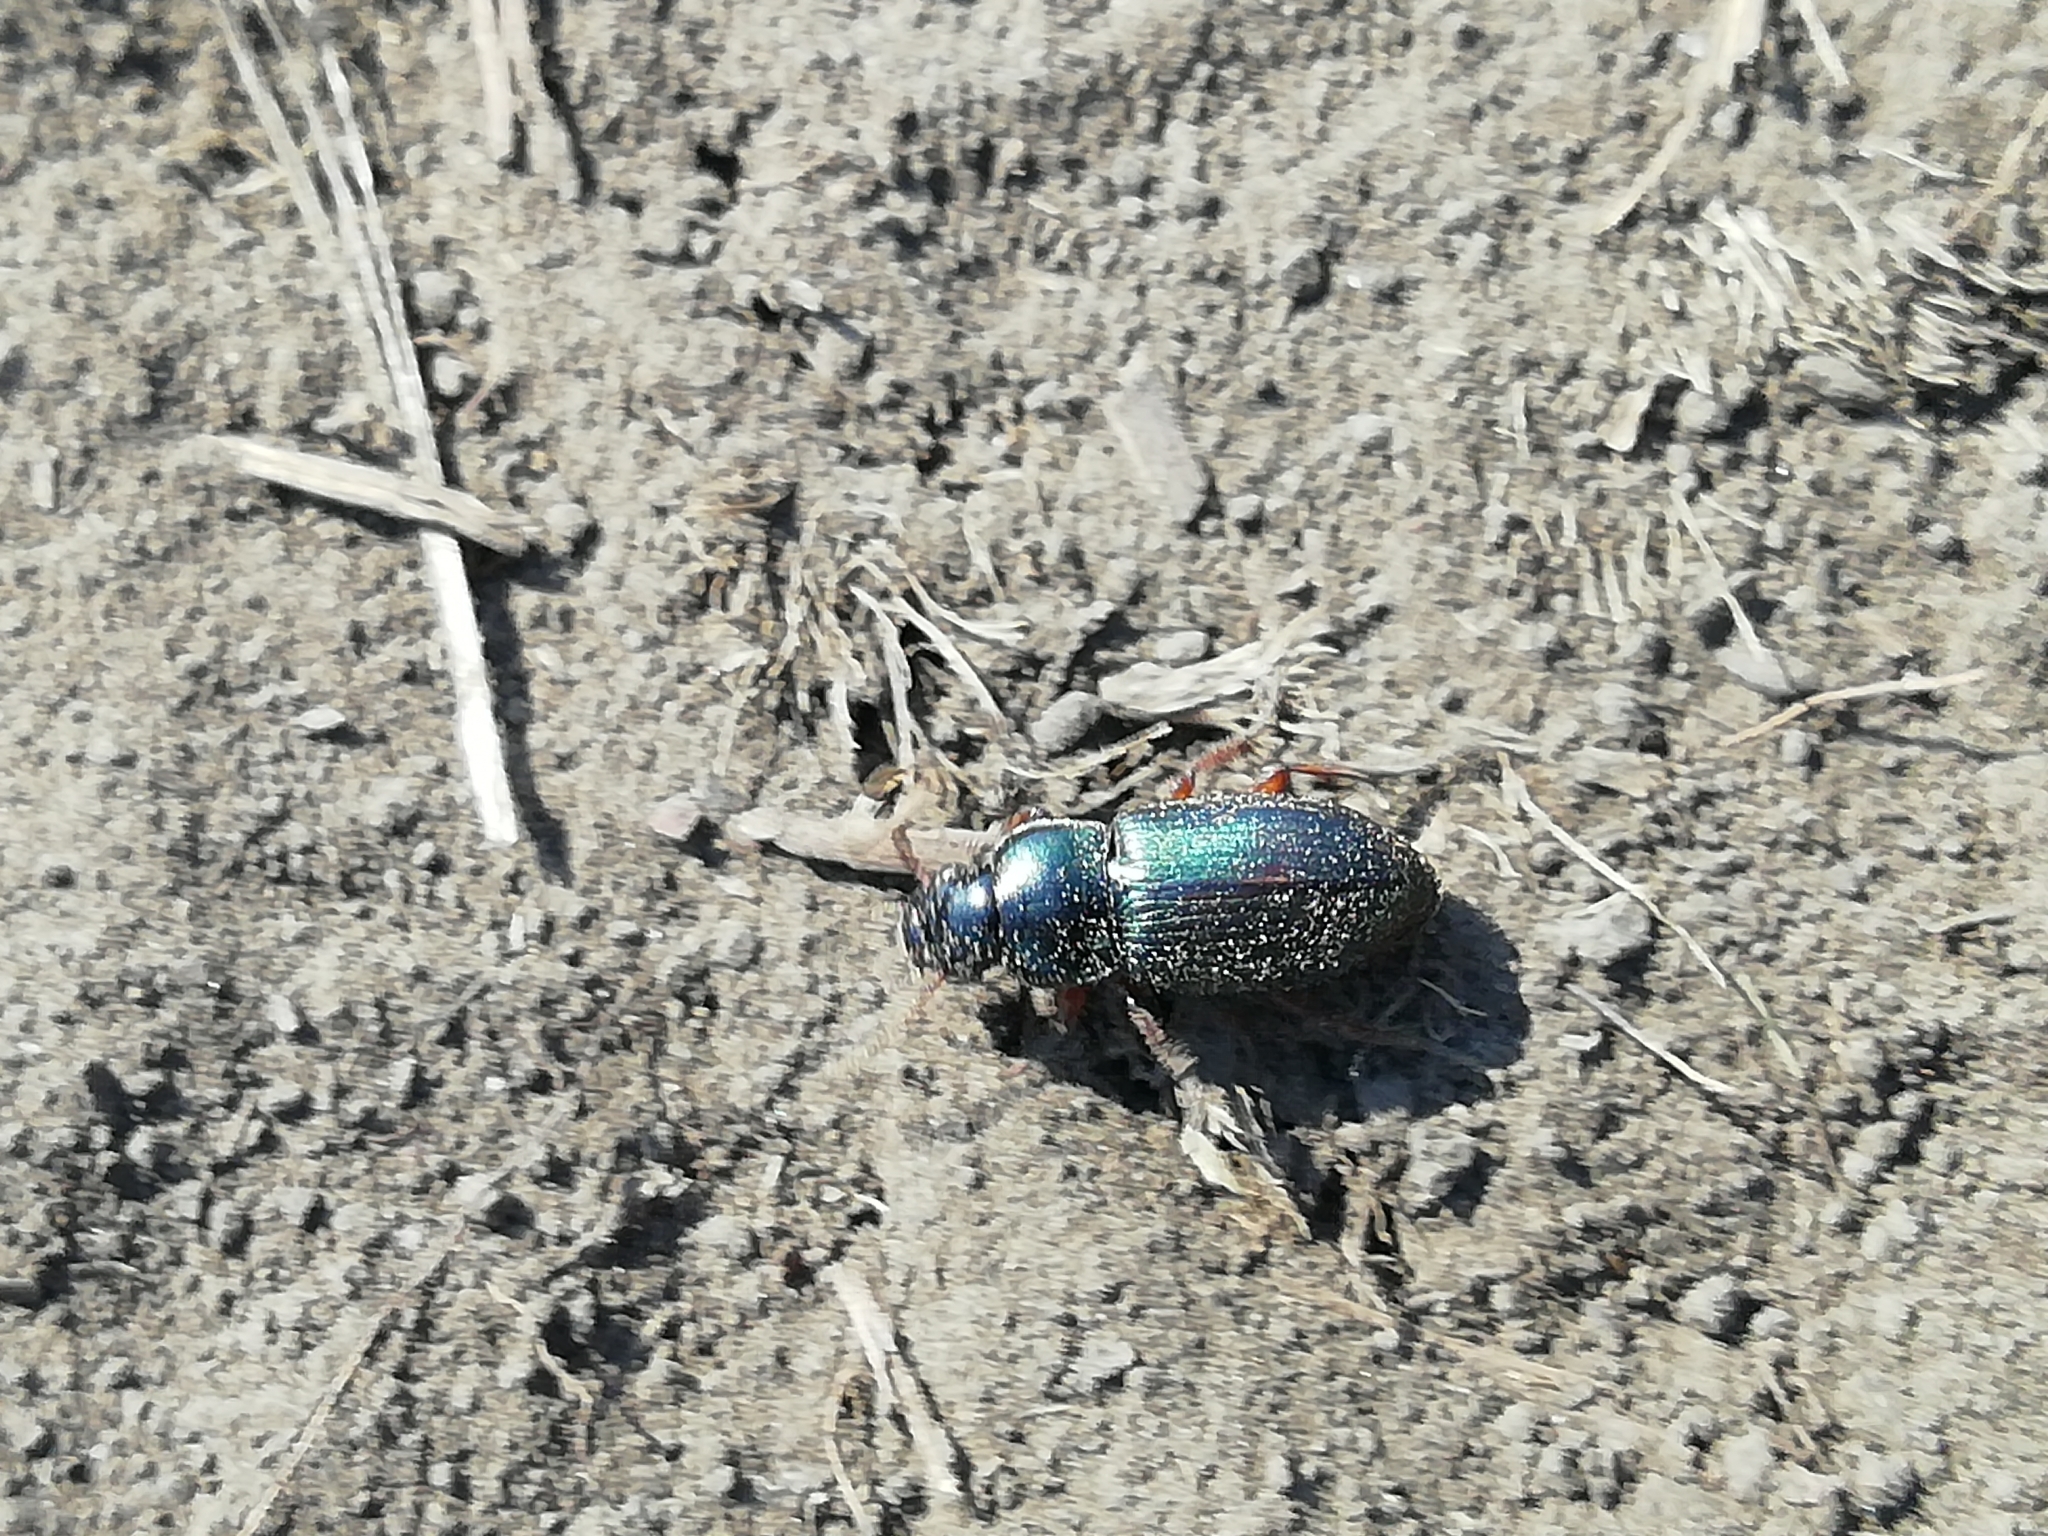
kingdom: Animalia
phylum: Arthropoda
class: Insecta
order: Coleoptera
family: Carabidae
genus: Harpalus
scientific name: Harpalus affinis
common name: Polychrome harp ground beetle
